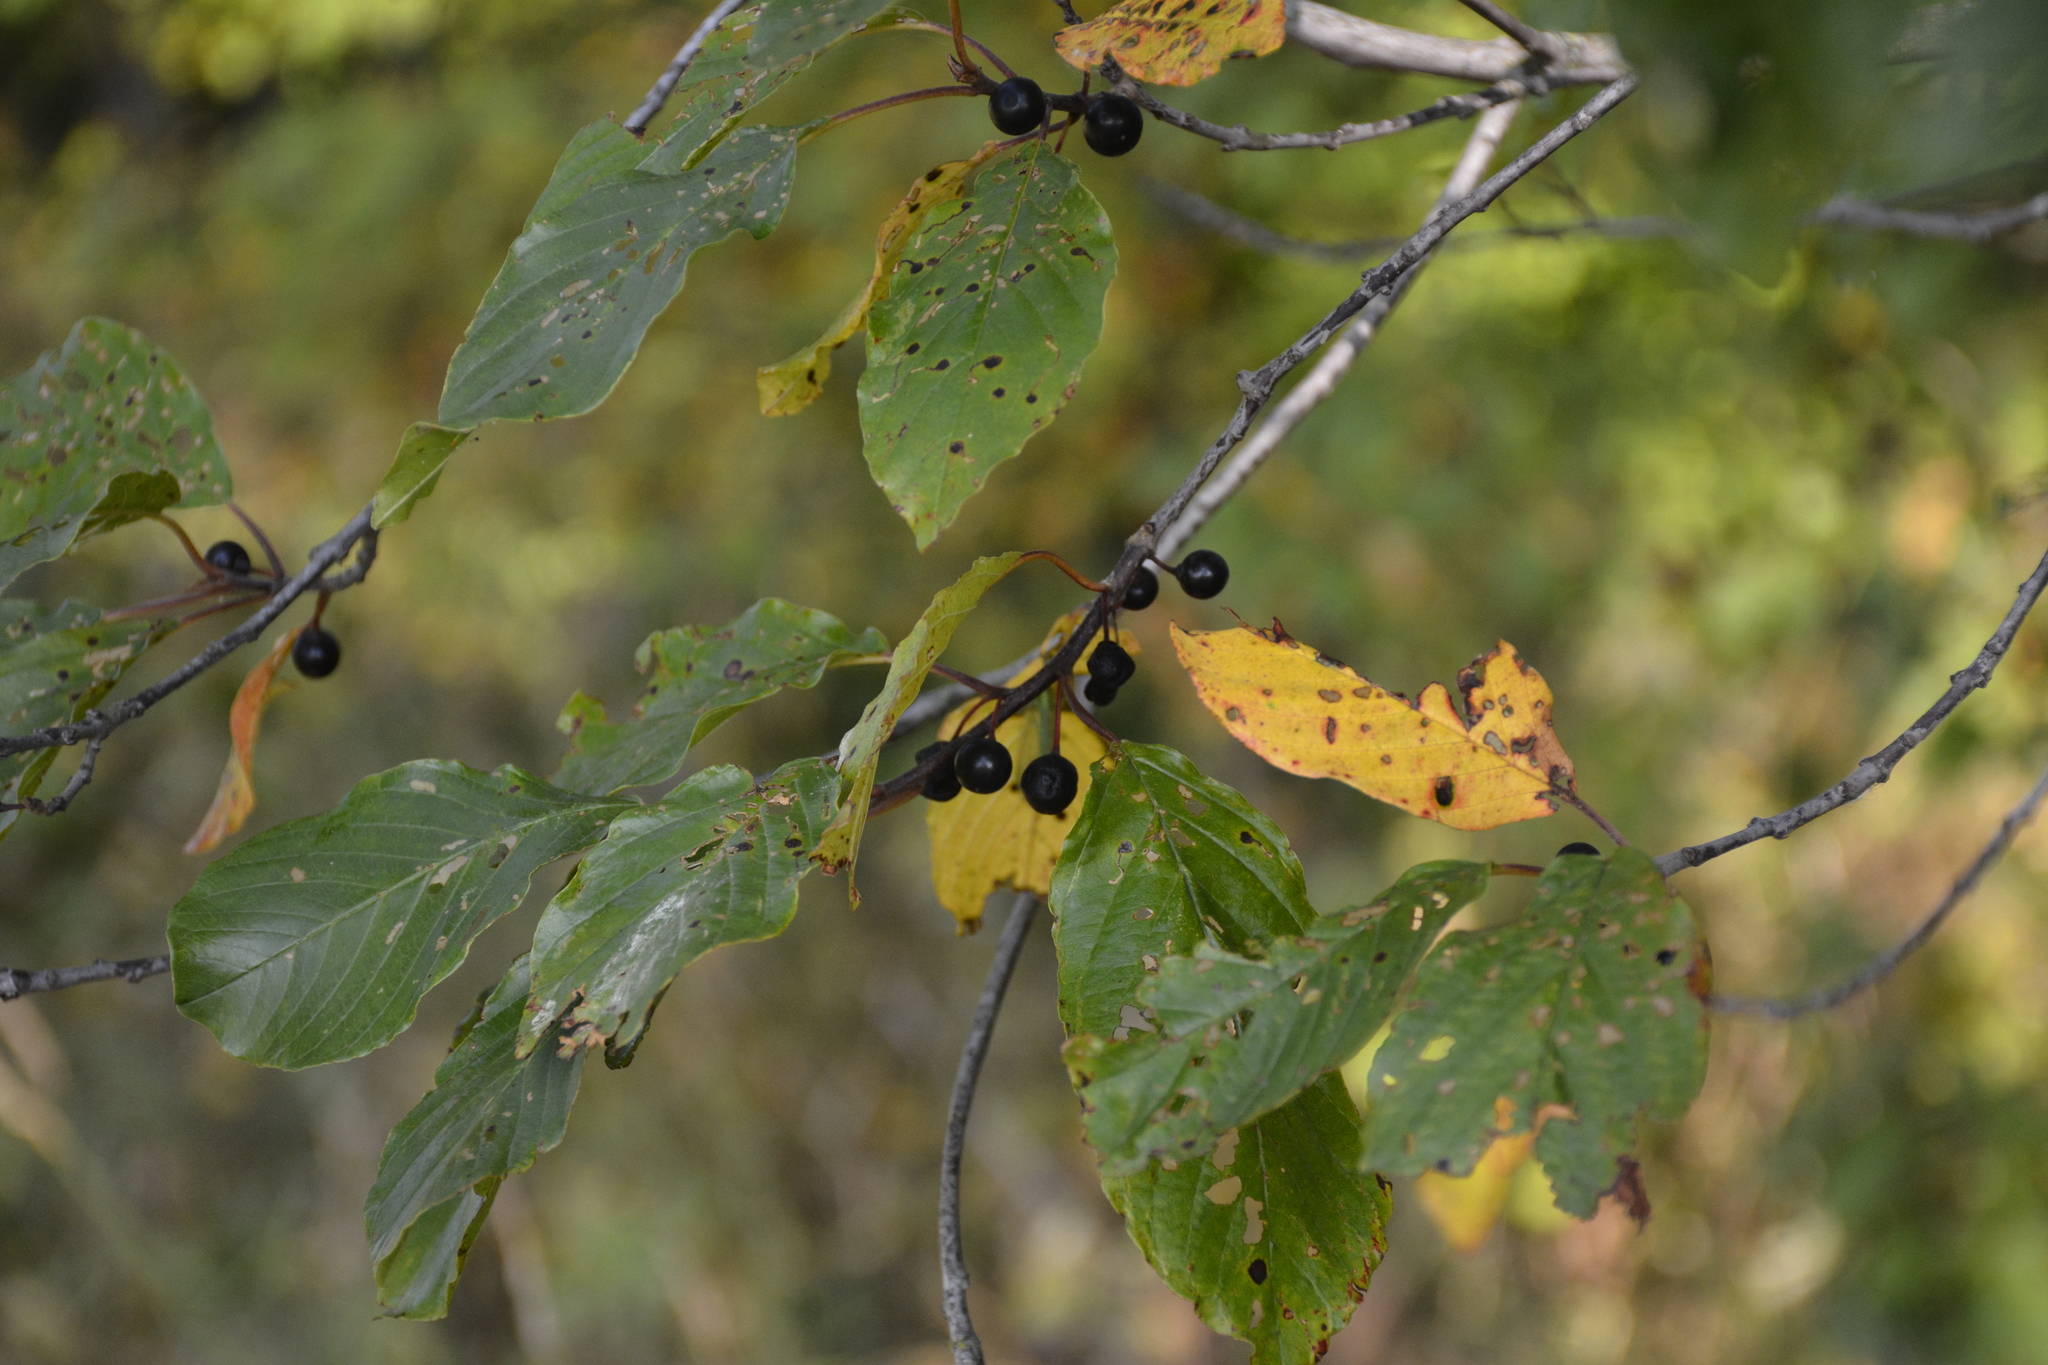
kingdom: Plantae
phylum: Tracheophyta
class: Magnoliopsida
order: Rosales
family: Rhamnaceae
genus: Frangula
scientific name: Frangula alnus
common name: Alder buckthorn
